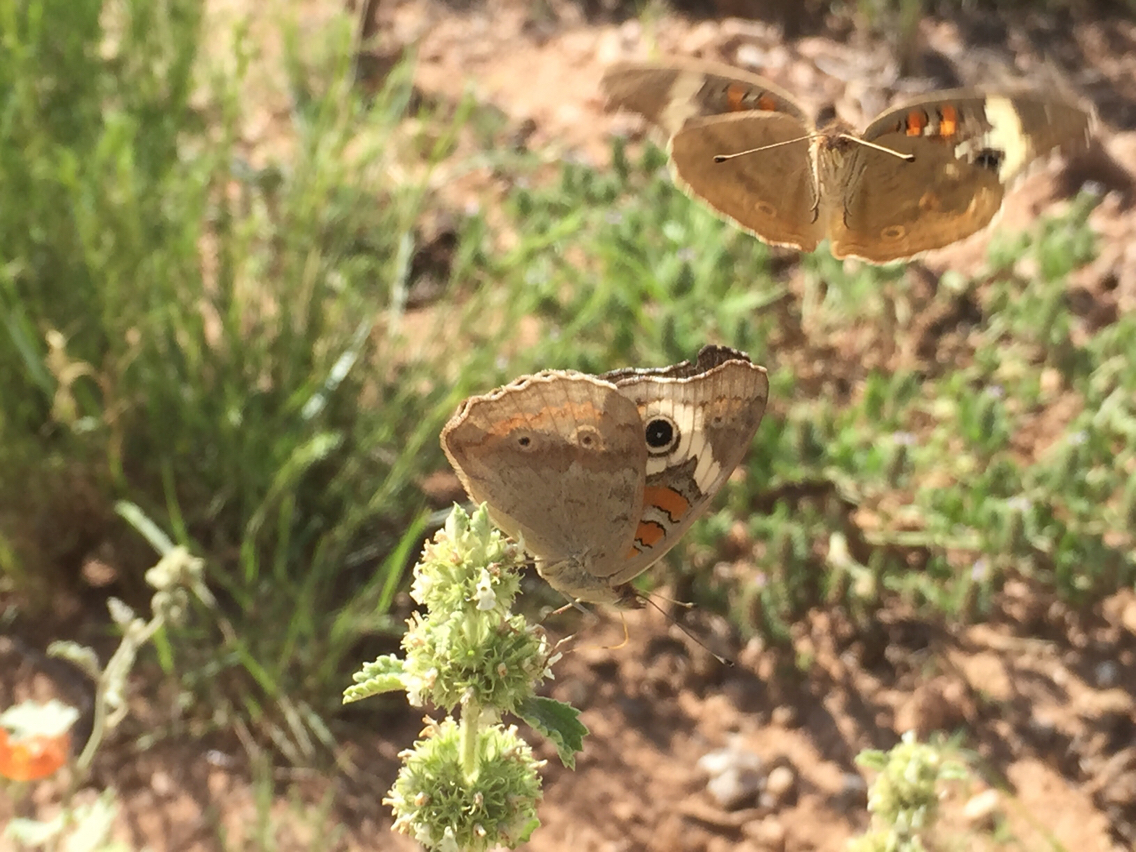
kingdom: Animalia
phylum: Arthropoda
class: Insecta
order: Lepidoptera
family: Nymphalidae
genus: Junonia
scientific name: Junonia grisea
